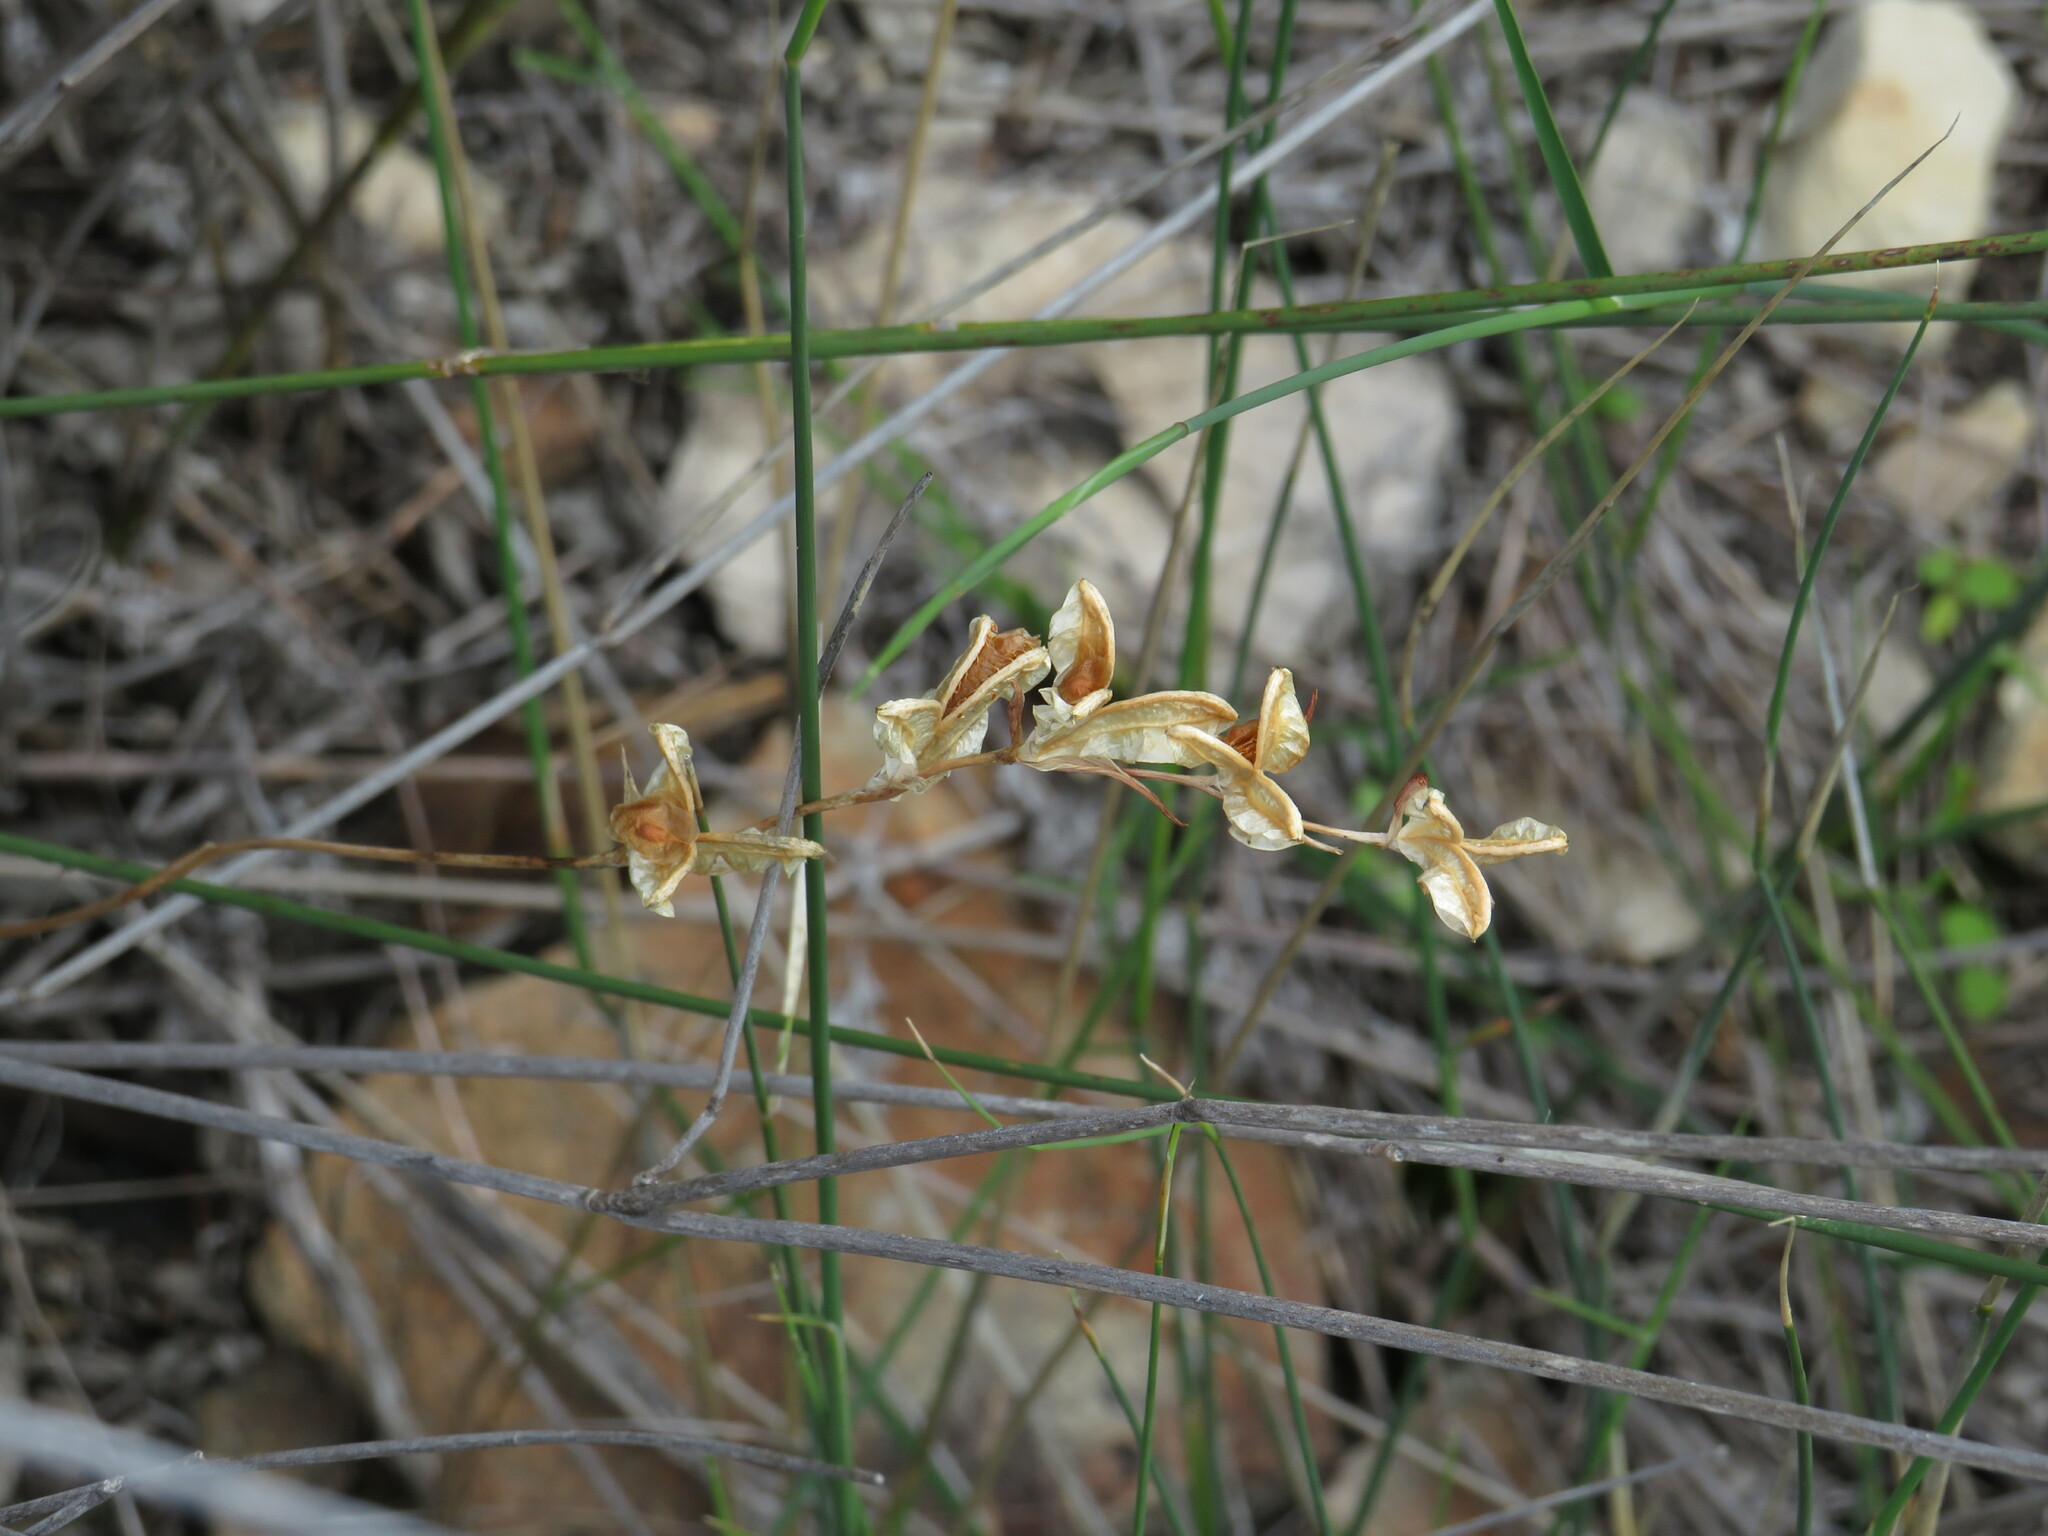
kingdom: Plantae
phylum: Tracheophyta
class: Liliopsida
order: Asparagales
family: Iridaceae
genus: Gladiolus
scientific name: Gladiolus brevifolius
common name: March pypie
